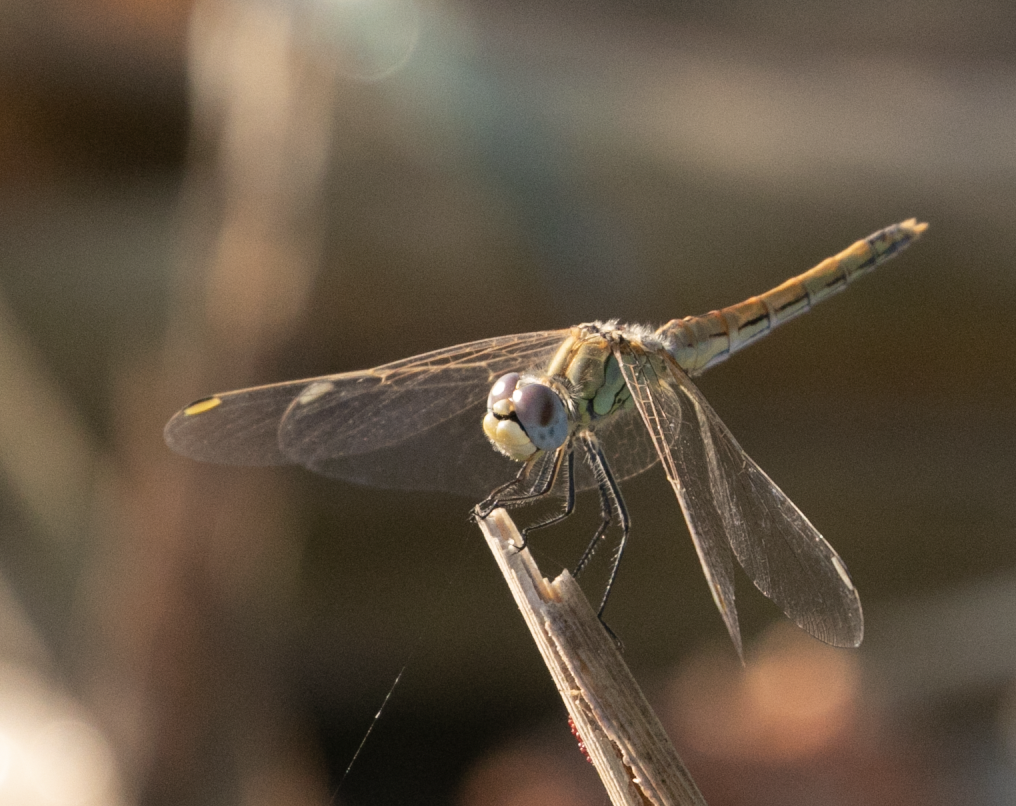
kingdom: Animalia
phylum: Arthropoda
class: Insecta
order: Odonata
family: Libellulidae
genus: Sympetrum
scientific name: Sympetrum fonscolombii
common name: Red-veined darter
